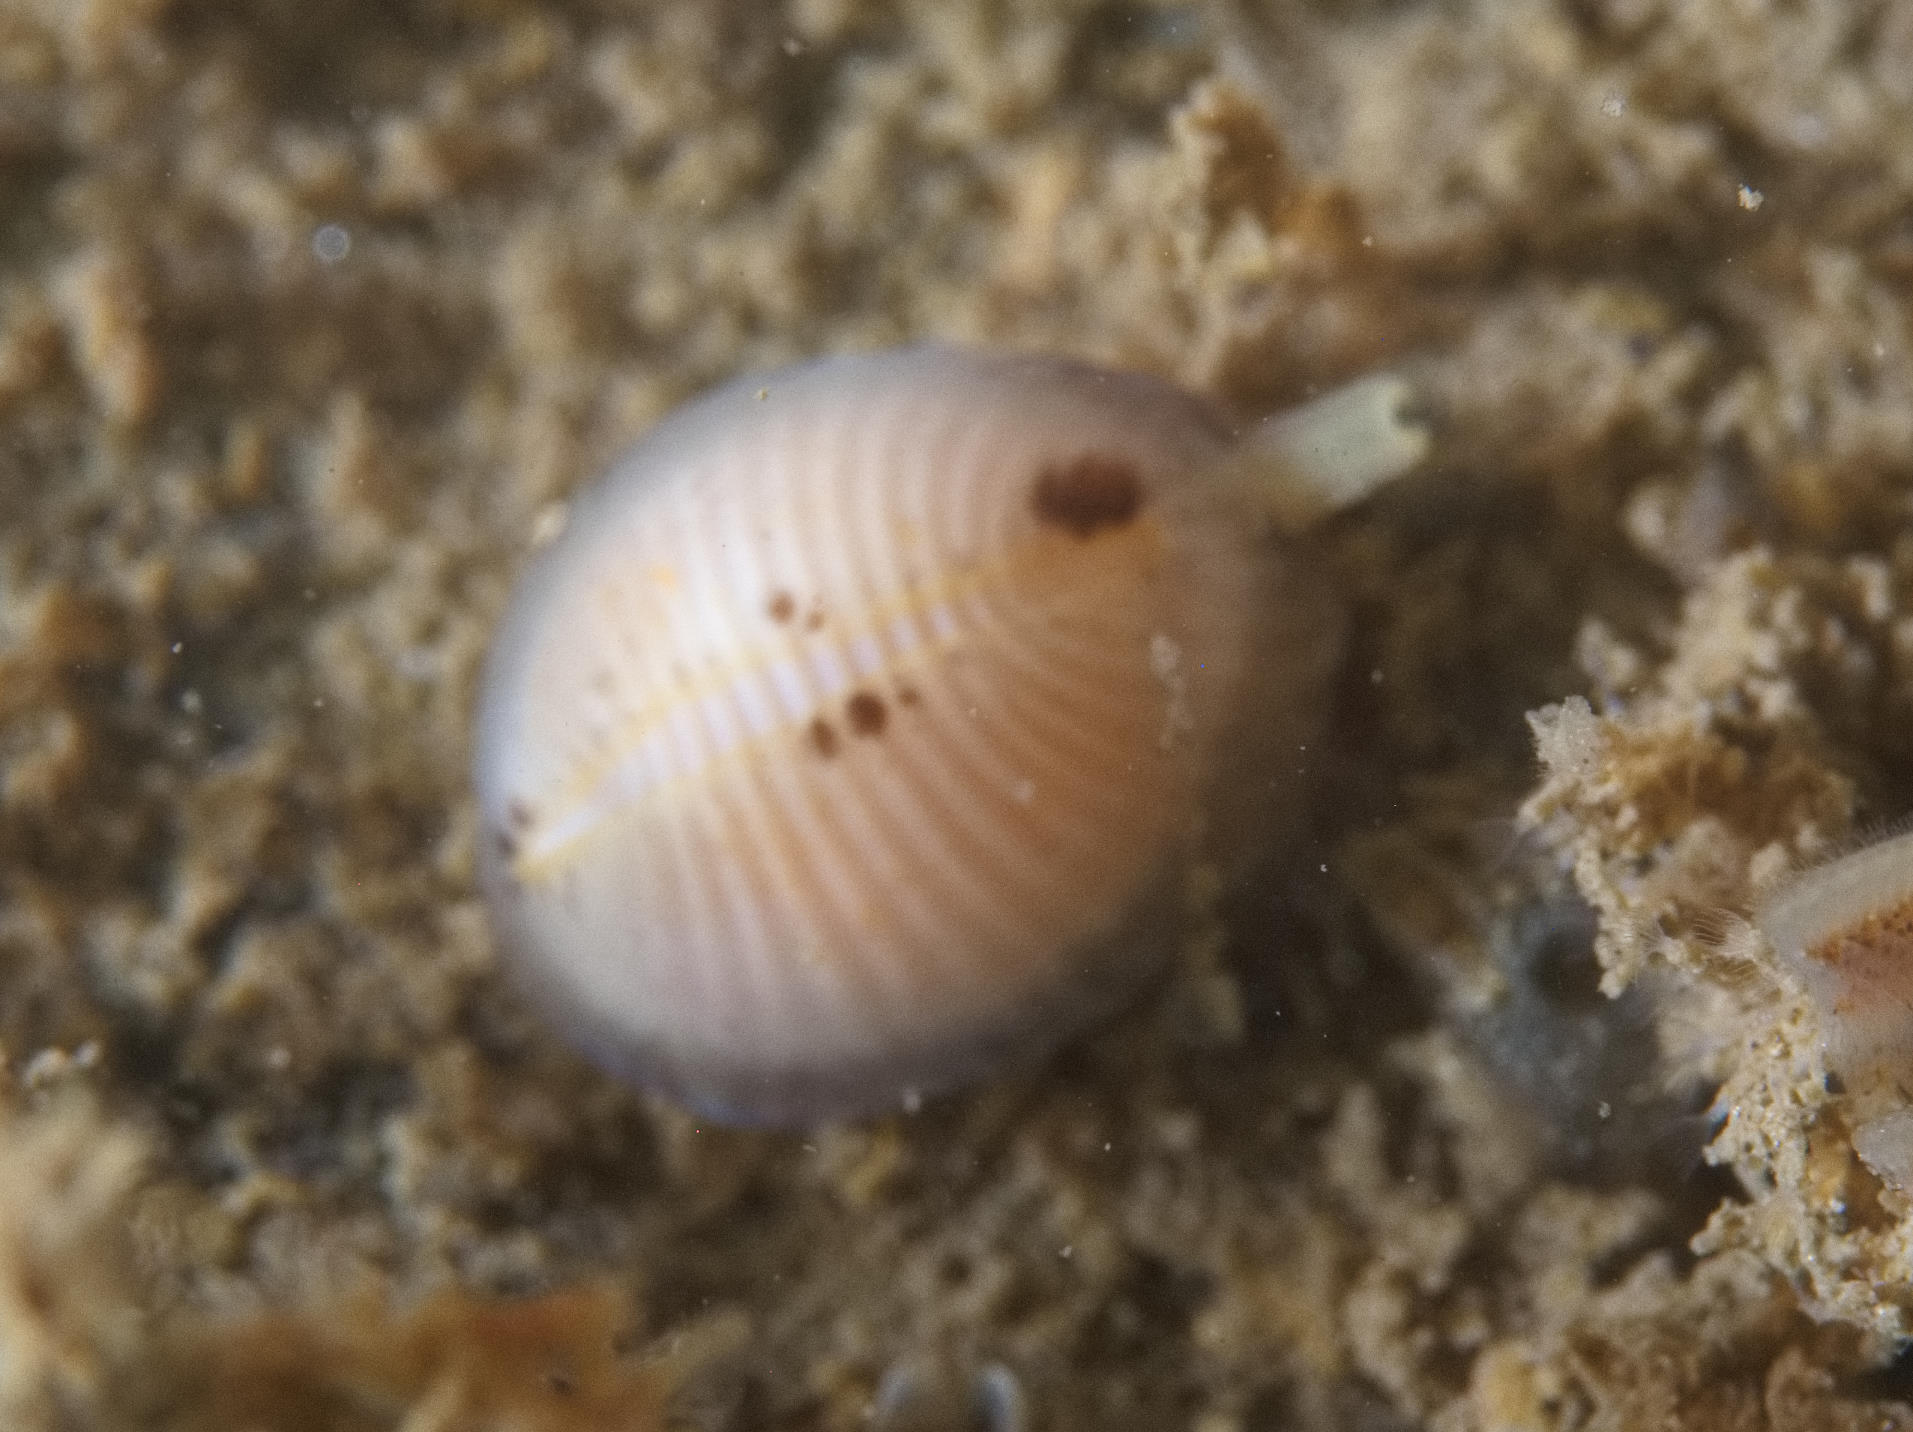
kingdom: Animalia
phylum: Mollusca
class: Gastropoda
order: Littorinimorpha
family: Triviidae
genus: Trivia
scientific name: Trivia arctica
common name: Arctic cowrie
